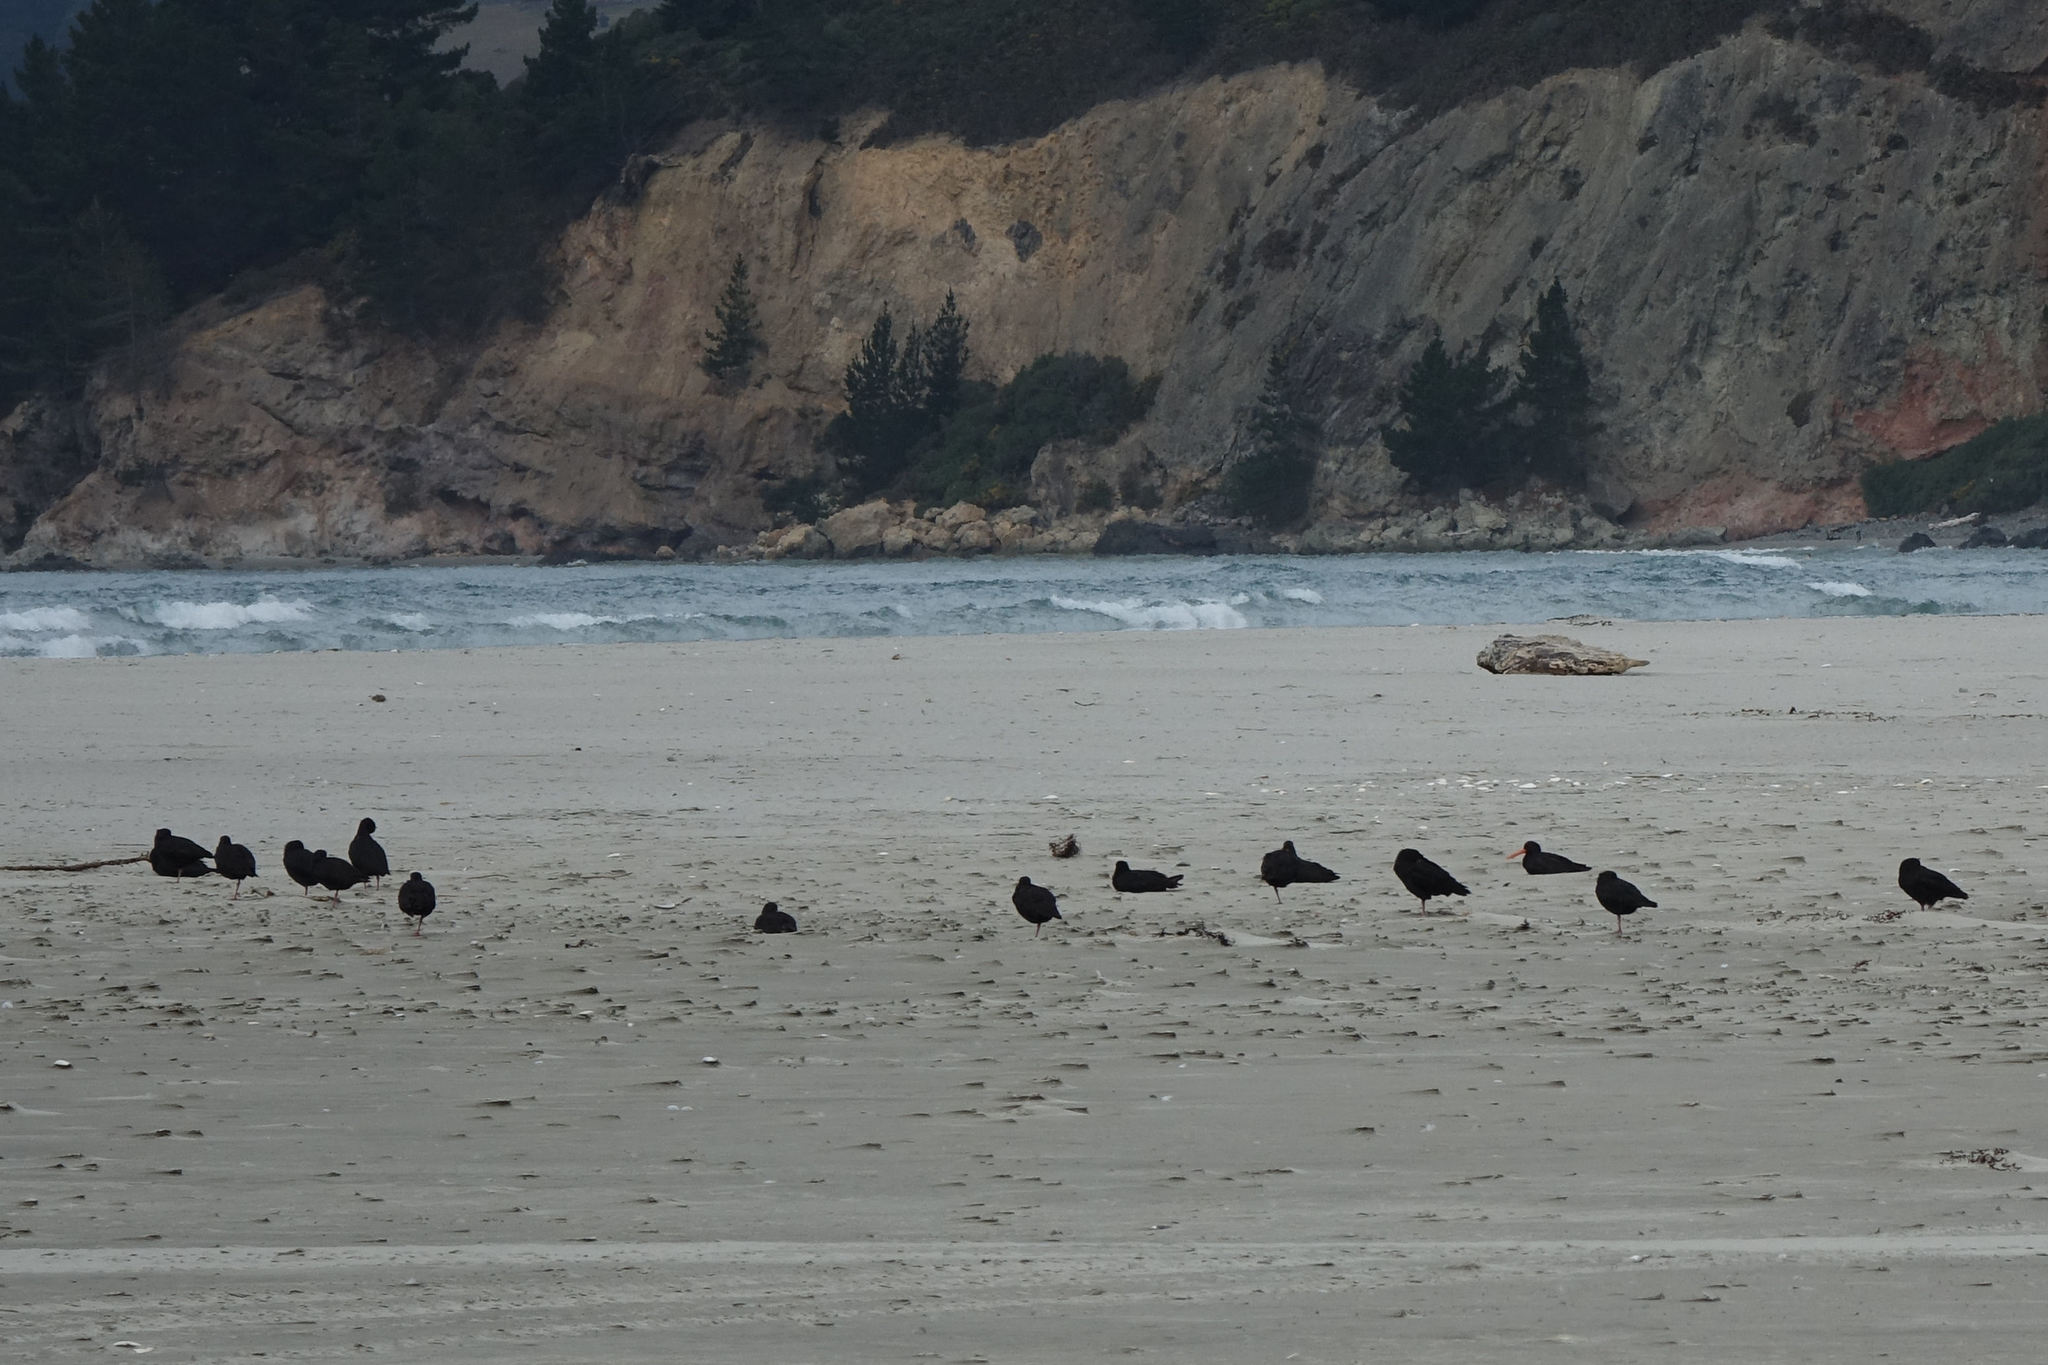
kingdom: Animalia
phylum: Chordata
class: Aves
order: Charadriiformes
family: Haematopodidae
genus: Haematopus
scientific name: Haematopus unicolor
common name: Variable oystercatcher
